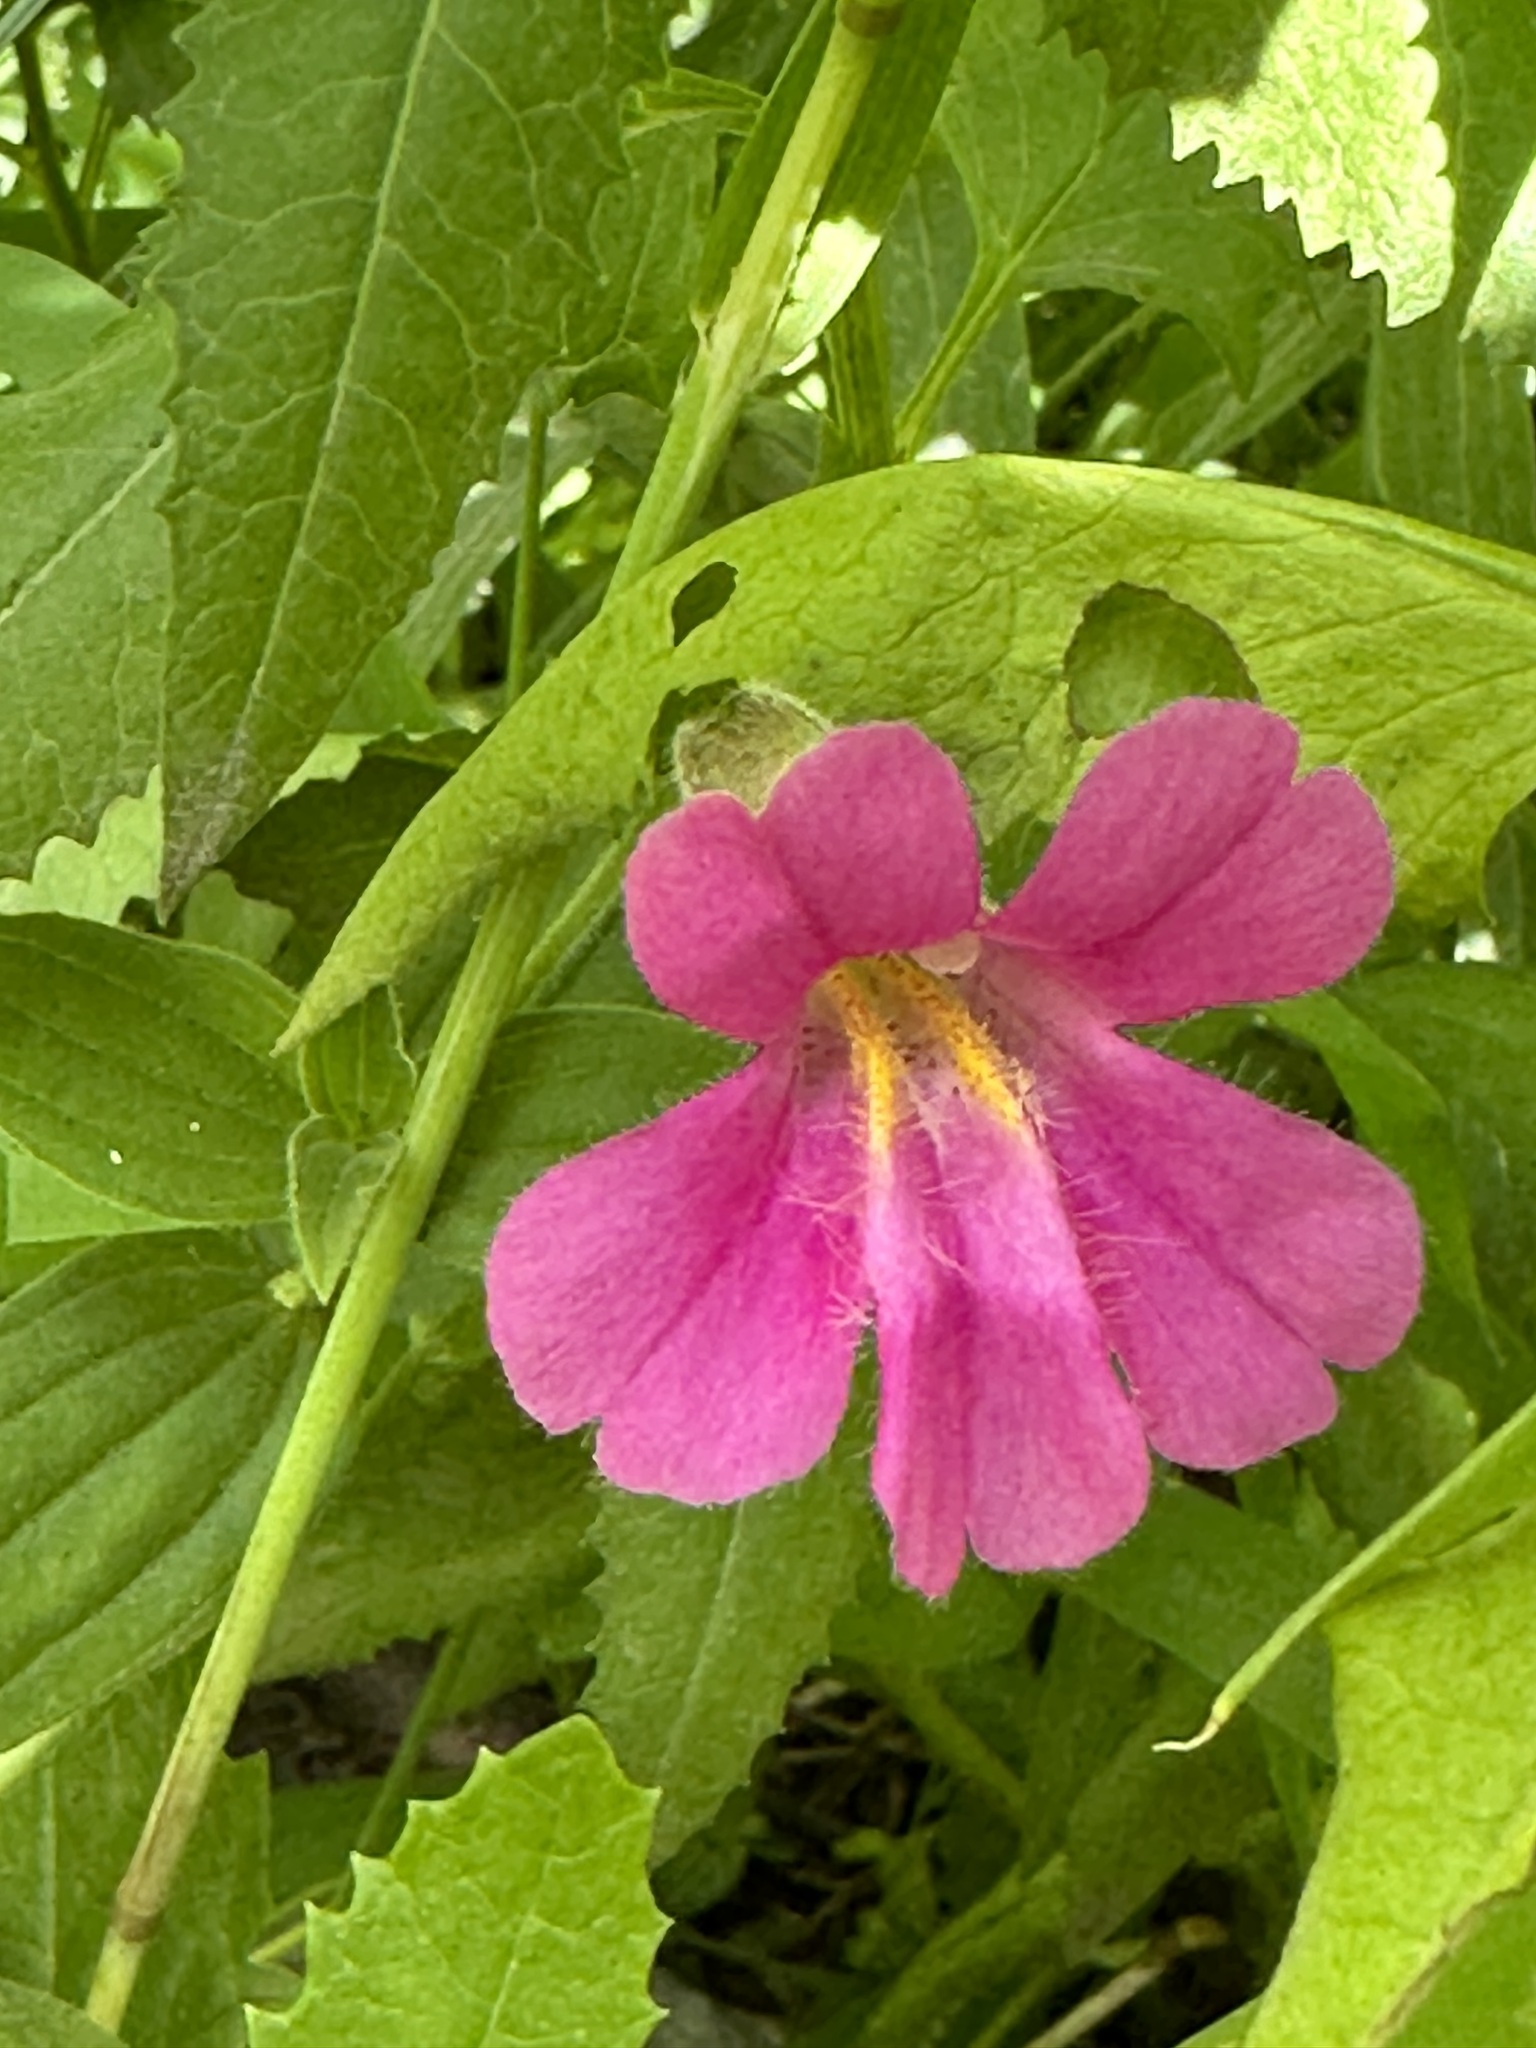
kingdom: Plantae
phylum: Tracheophyta
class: Magnoliopsida
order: Lamiales
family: Phrymaceae
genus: Erythranthe
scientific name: Erythranthe lewisii
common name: Lewis's monkey-flower
